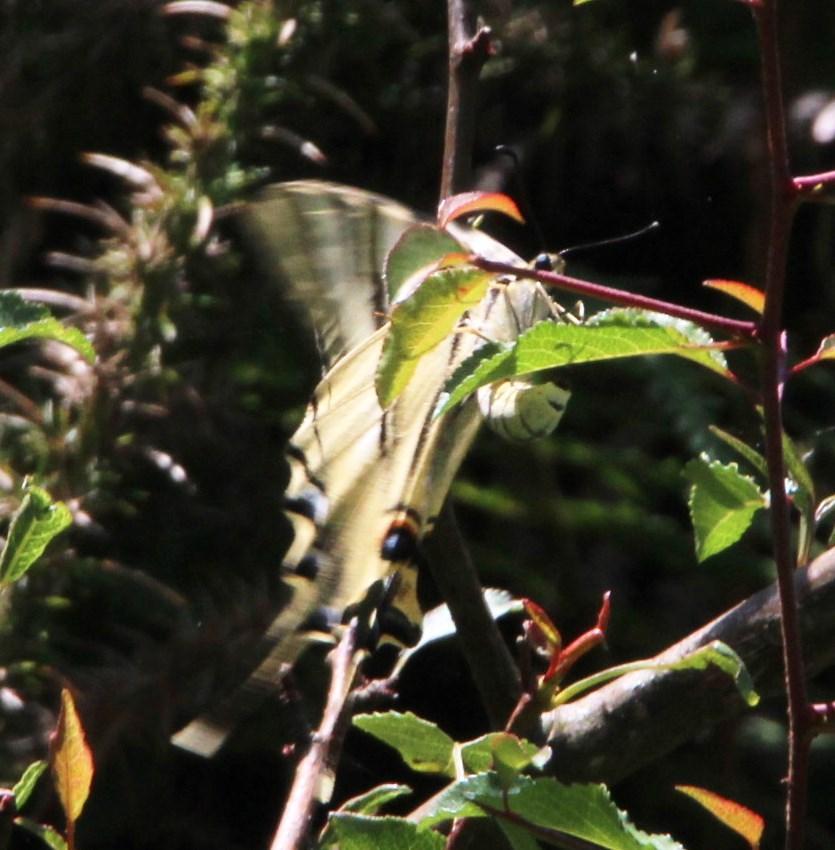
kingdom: Animalia
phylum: Arthropoda
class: Insecta
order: Lepidoptera
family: Papilionidae
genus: Iphiclides
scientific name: Iphiclides feisthamelii
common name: Iberian scarce swallowtail
